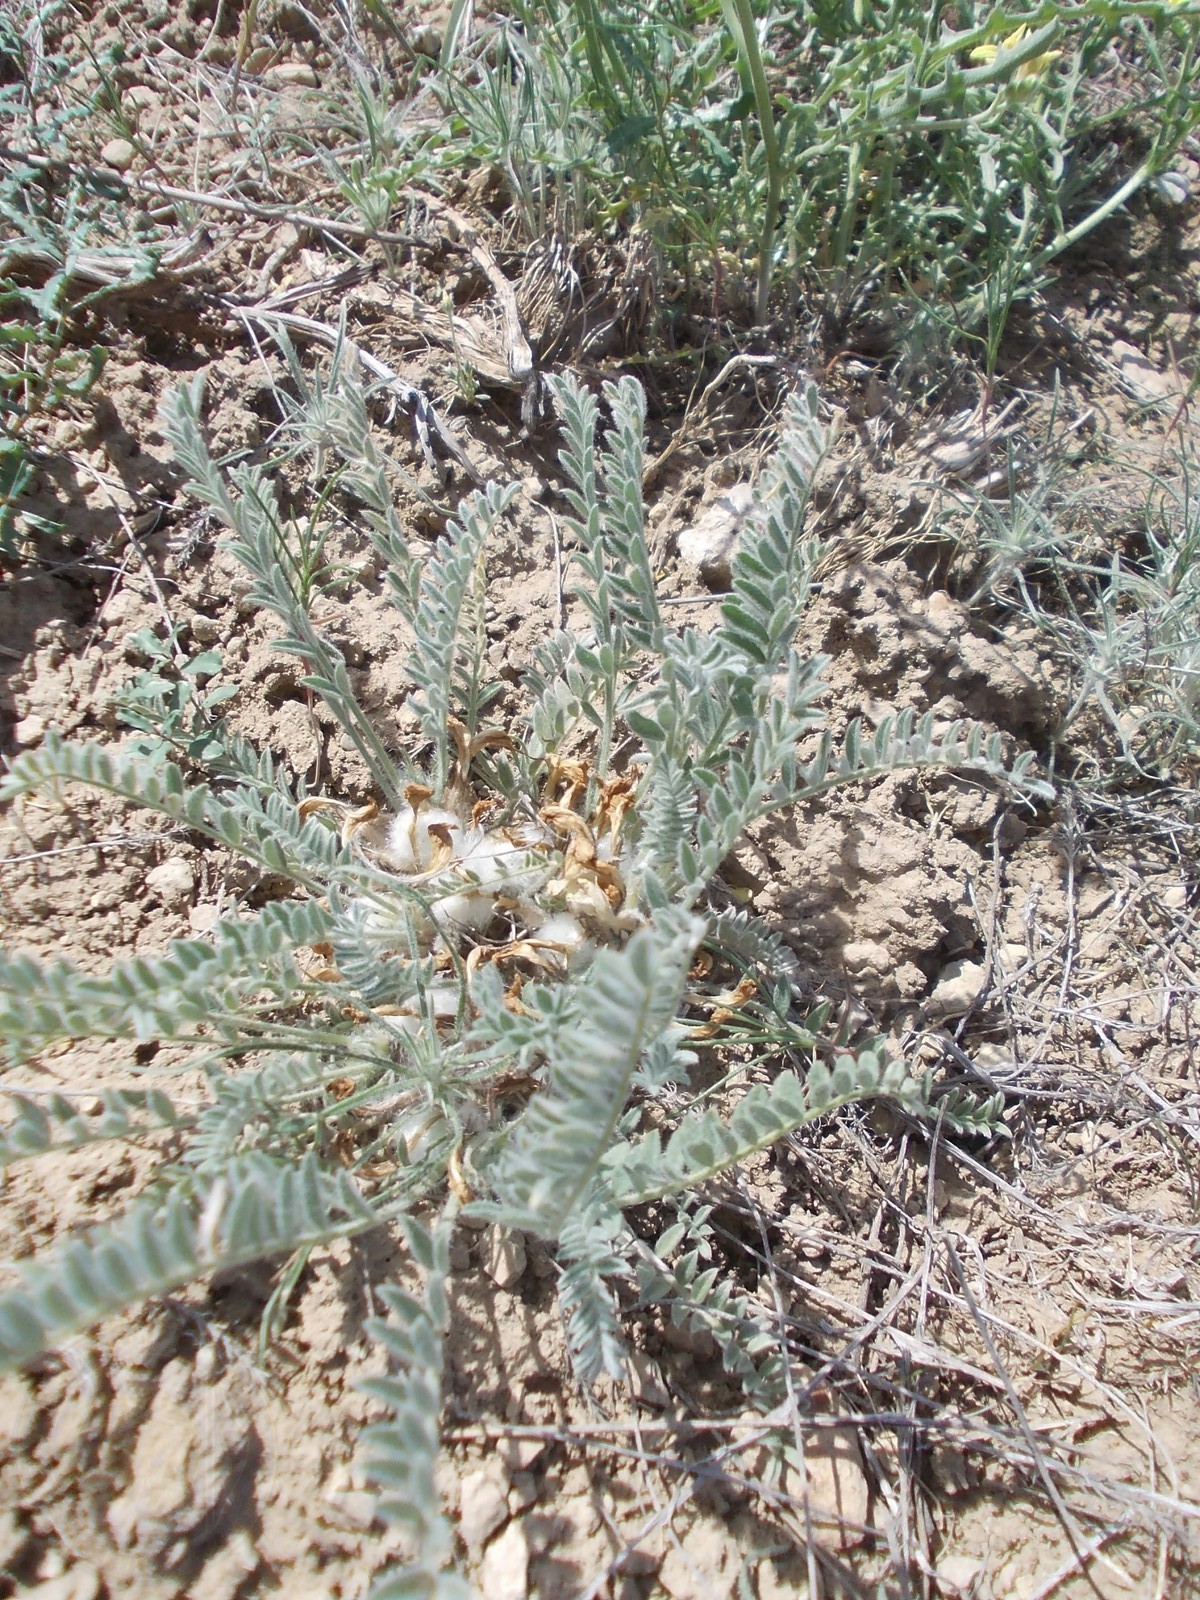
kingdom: Plantae
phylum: Tracheophyta
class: Magnoliopsida
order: Fabales
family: Fabaceae
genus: Astragalus
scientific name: Astragalus testiculatus
